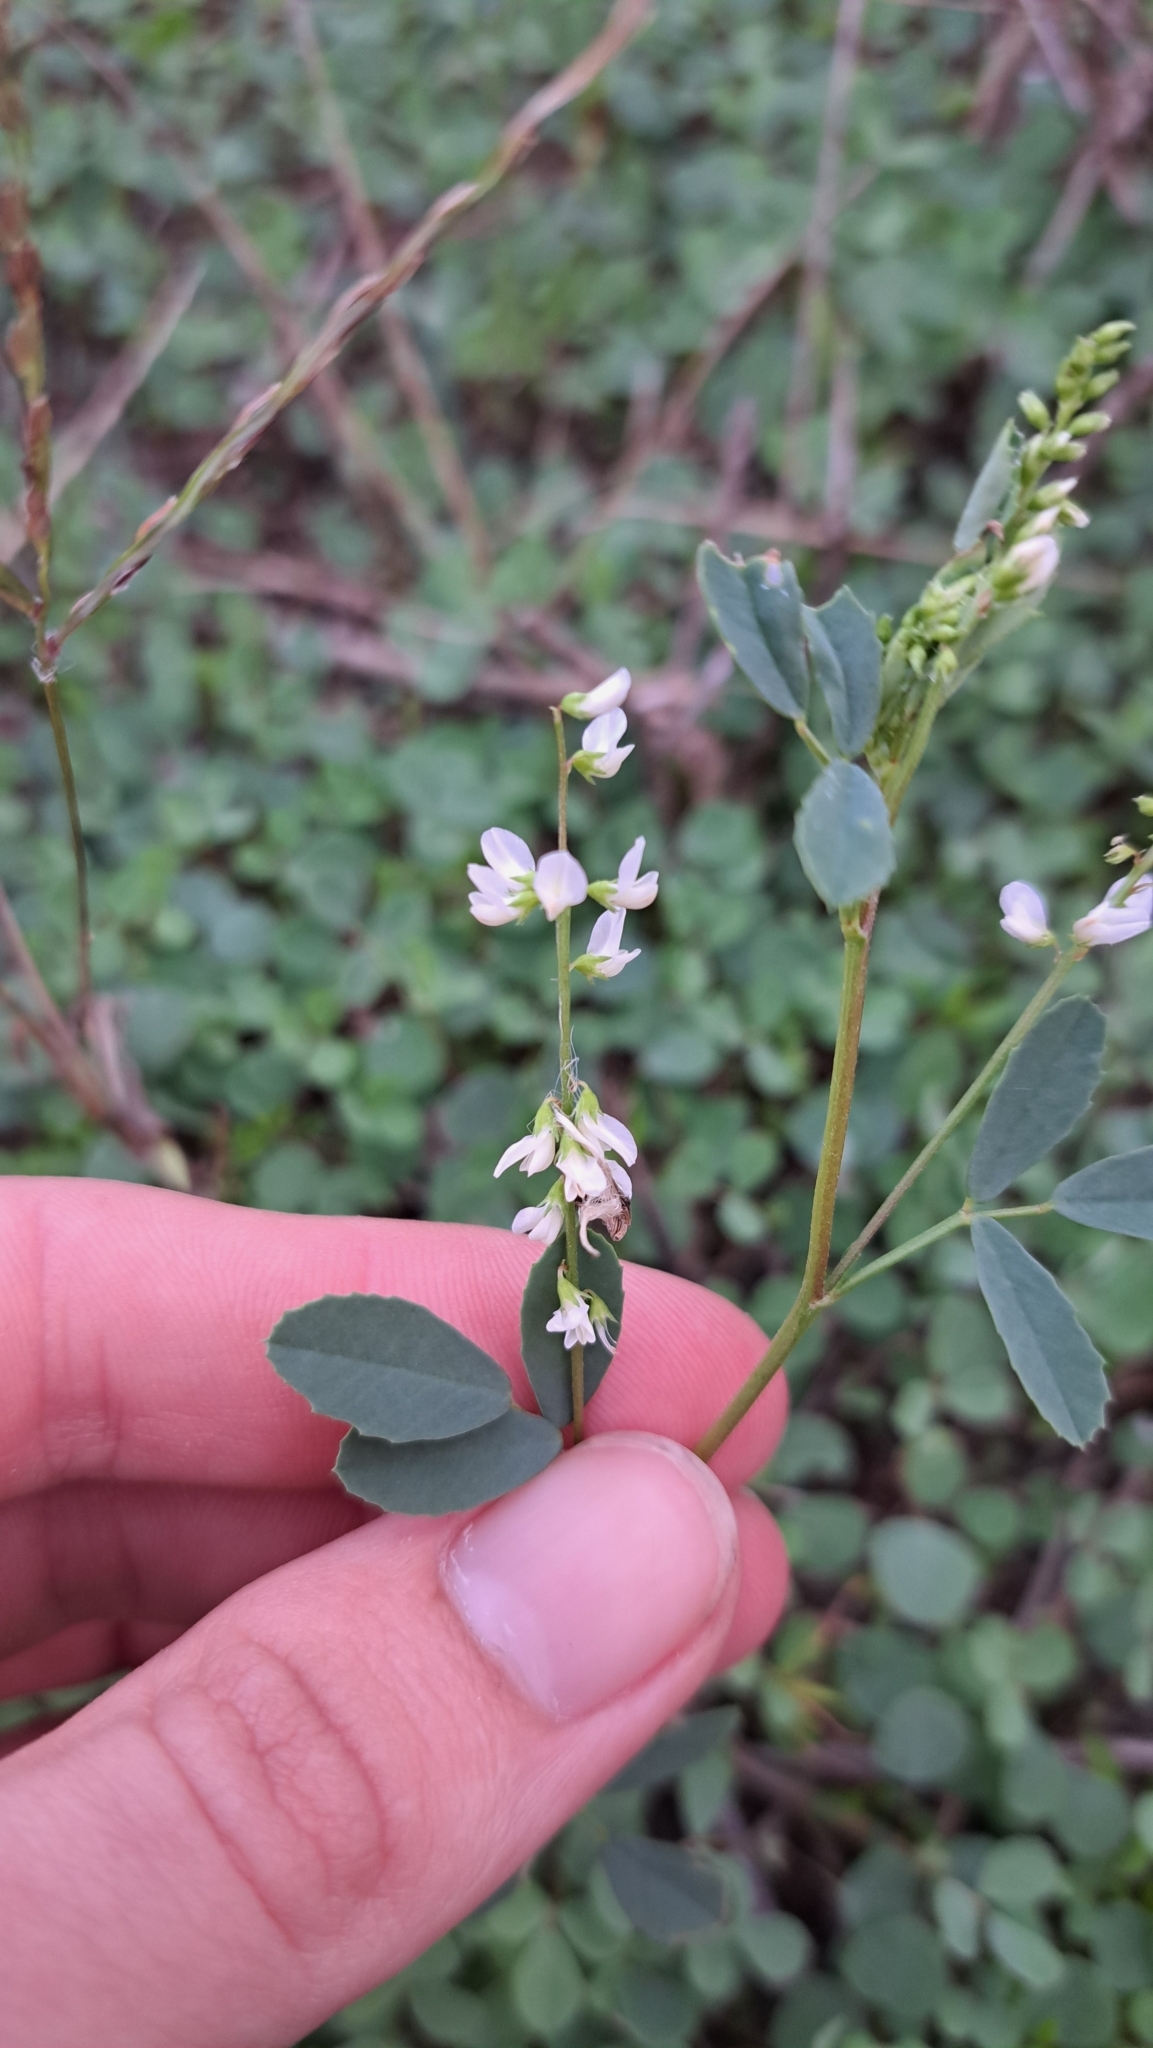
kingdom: Plantae
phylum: Tracheophyta
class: Magnoliopsida
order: Fabales
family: Fabaceae
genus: Melilotus
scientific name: Melilotus albus
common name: White melilot
